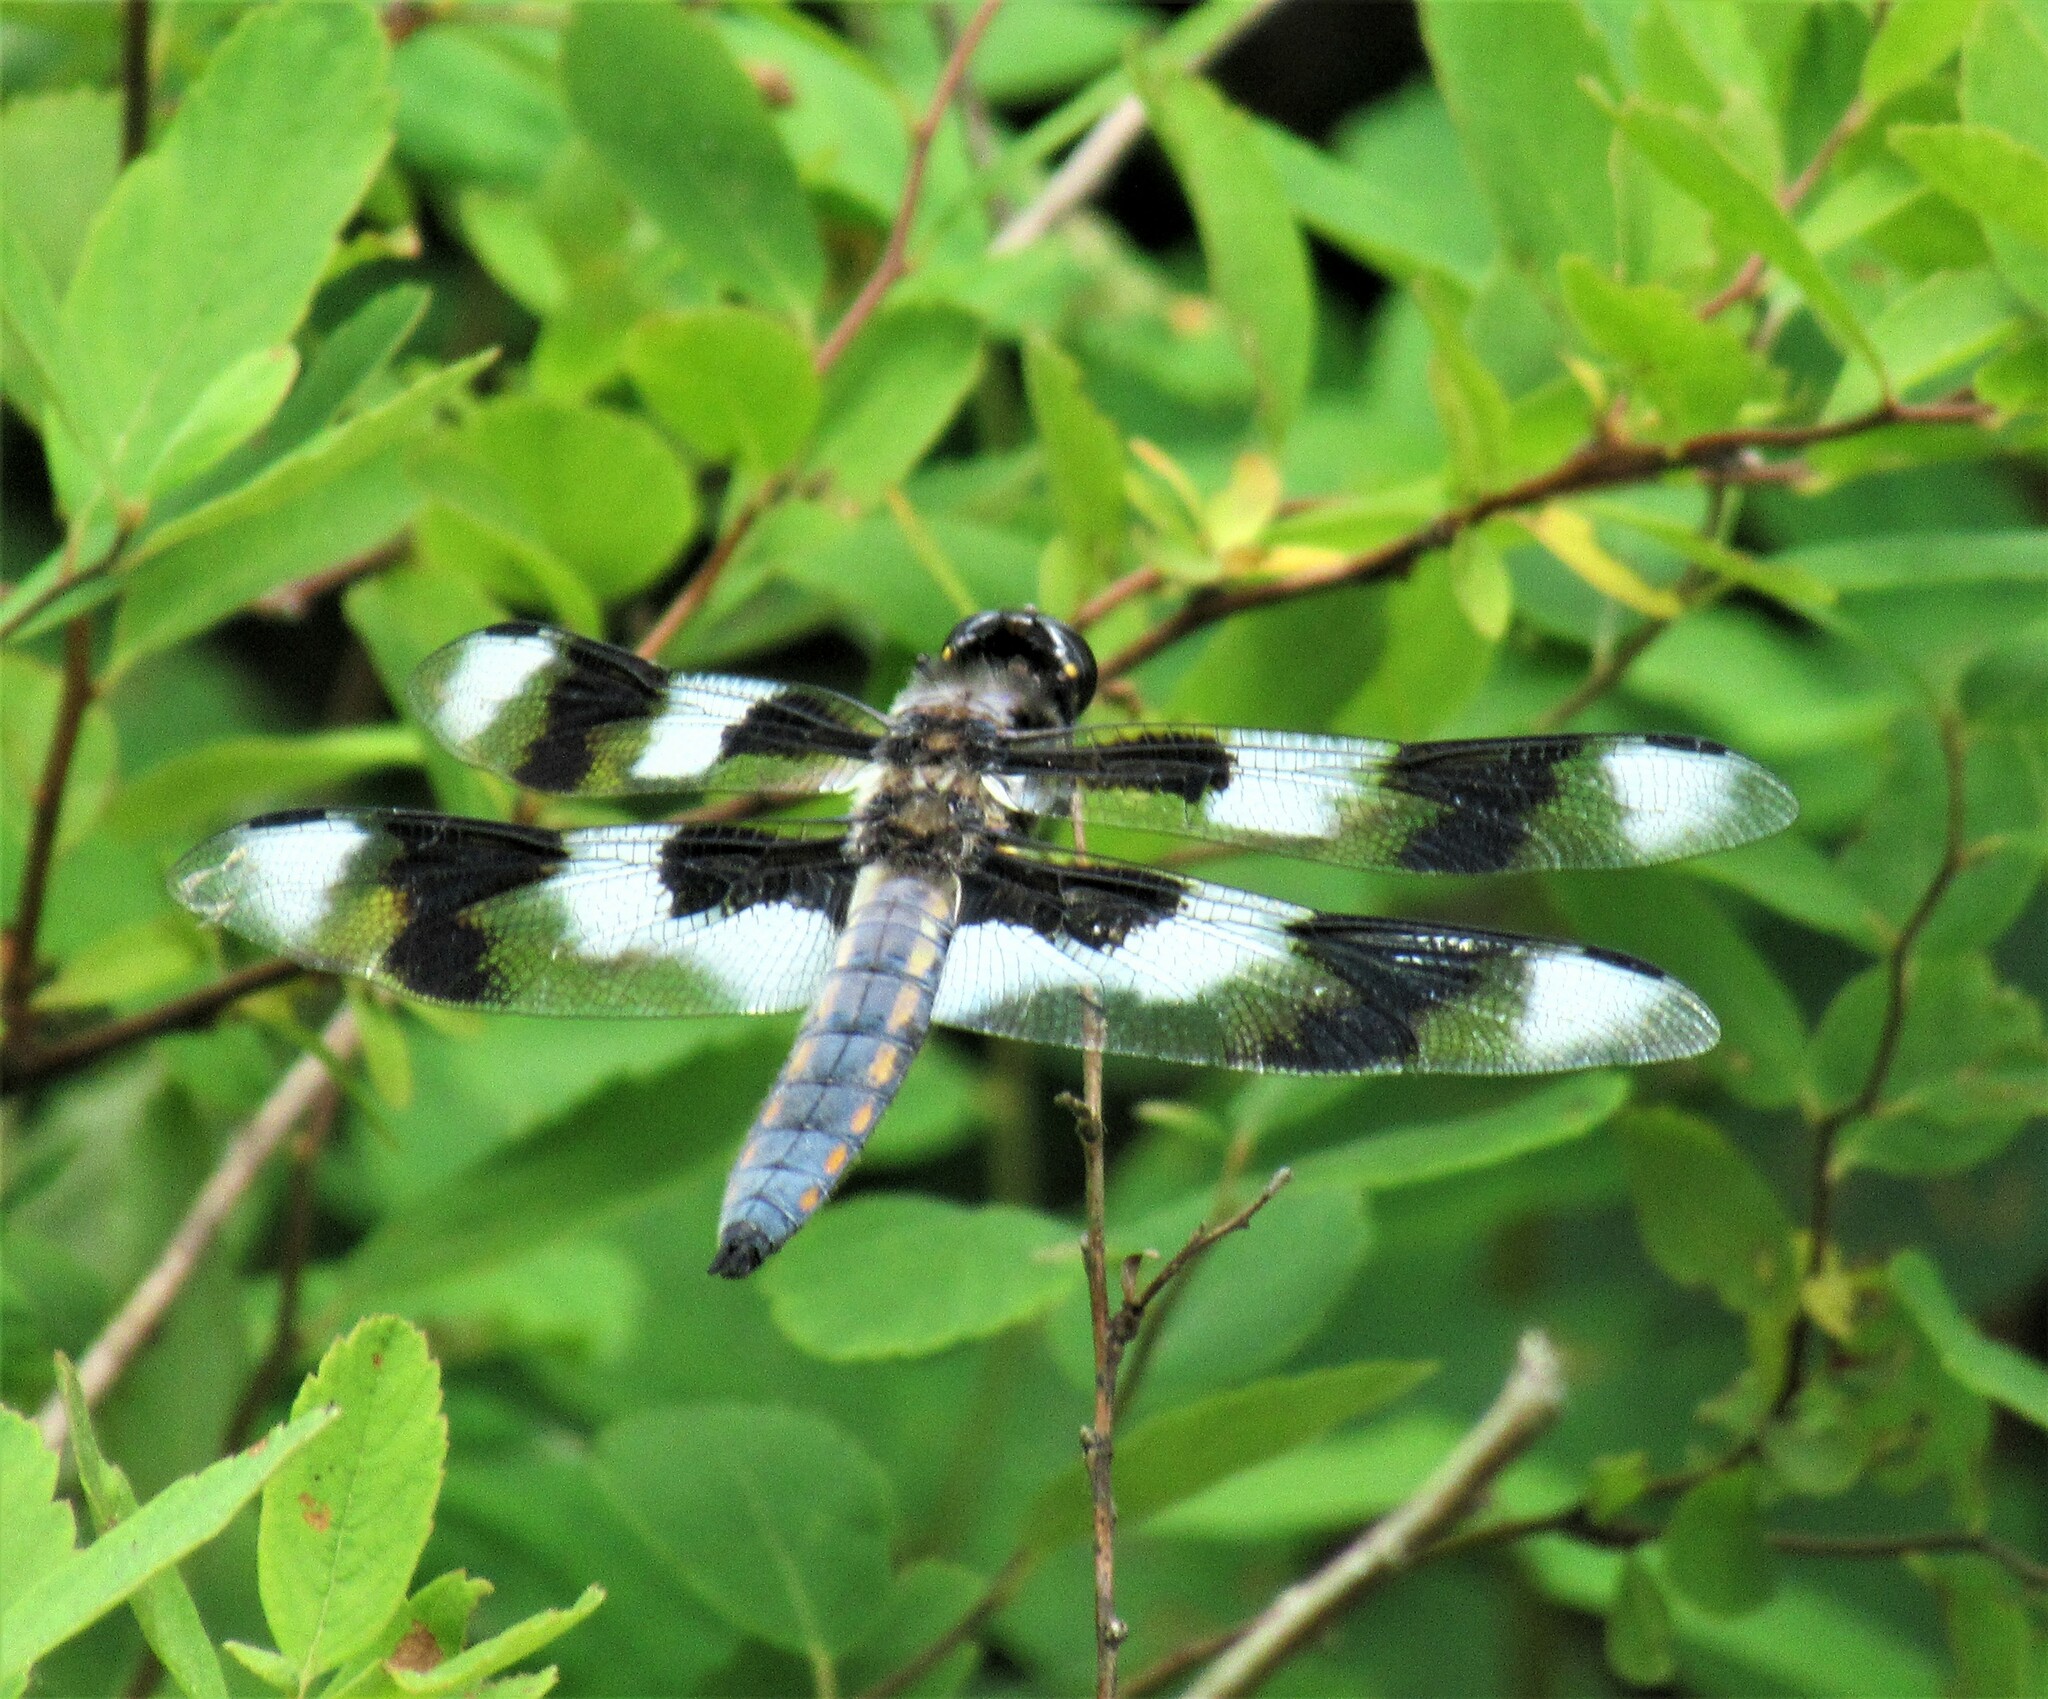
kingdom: Animalia
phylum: Arthropoda
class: Insecta
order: Odonata
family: Libellulidae
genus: Libellula
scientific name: Libellula forensis
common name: Eight-spotted skimmer
